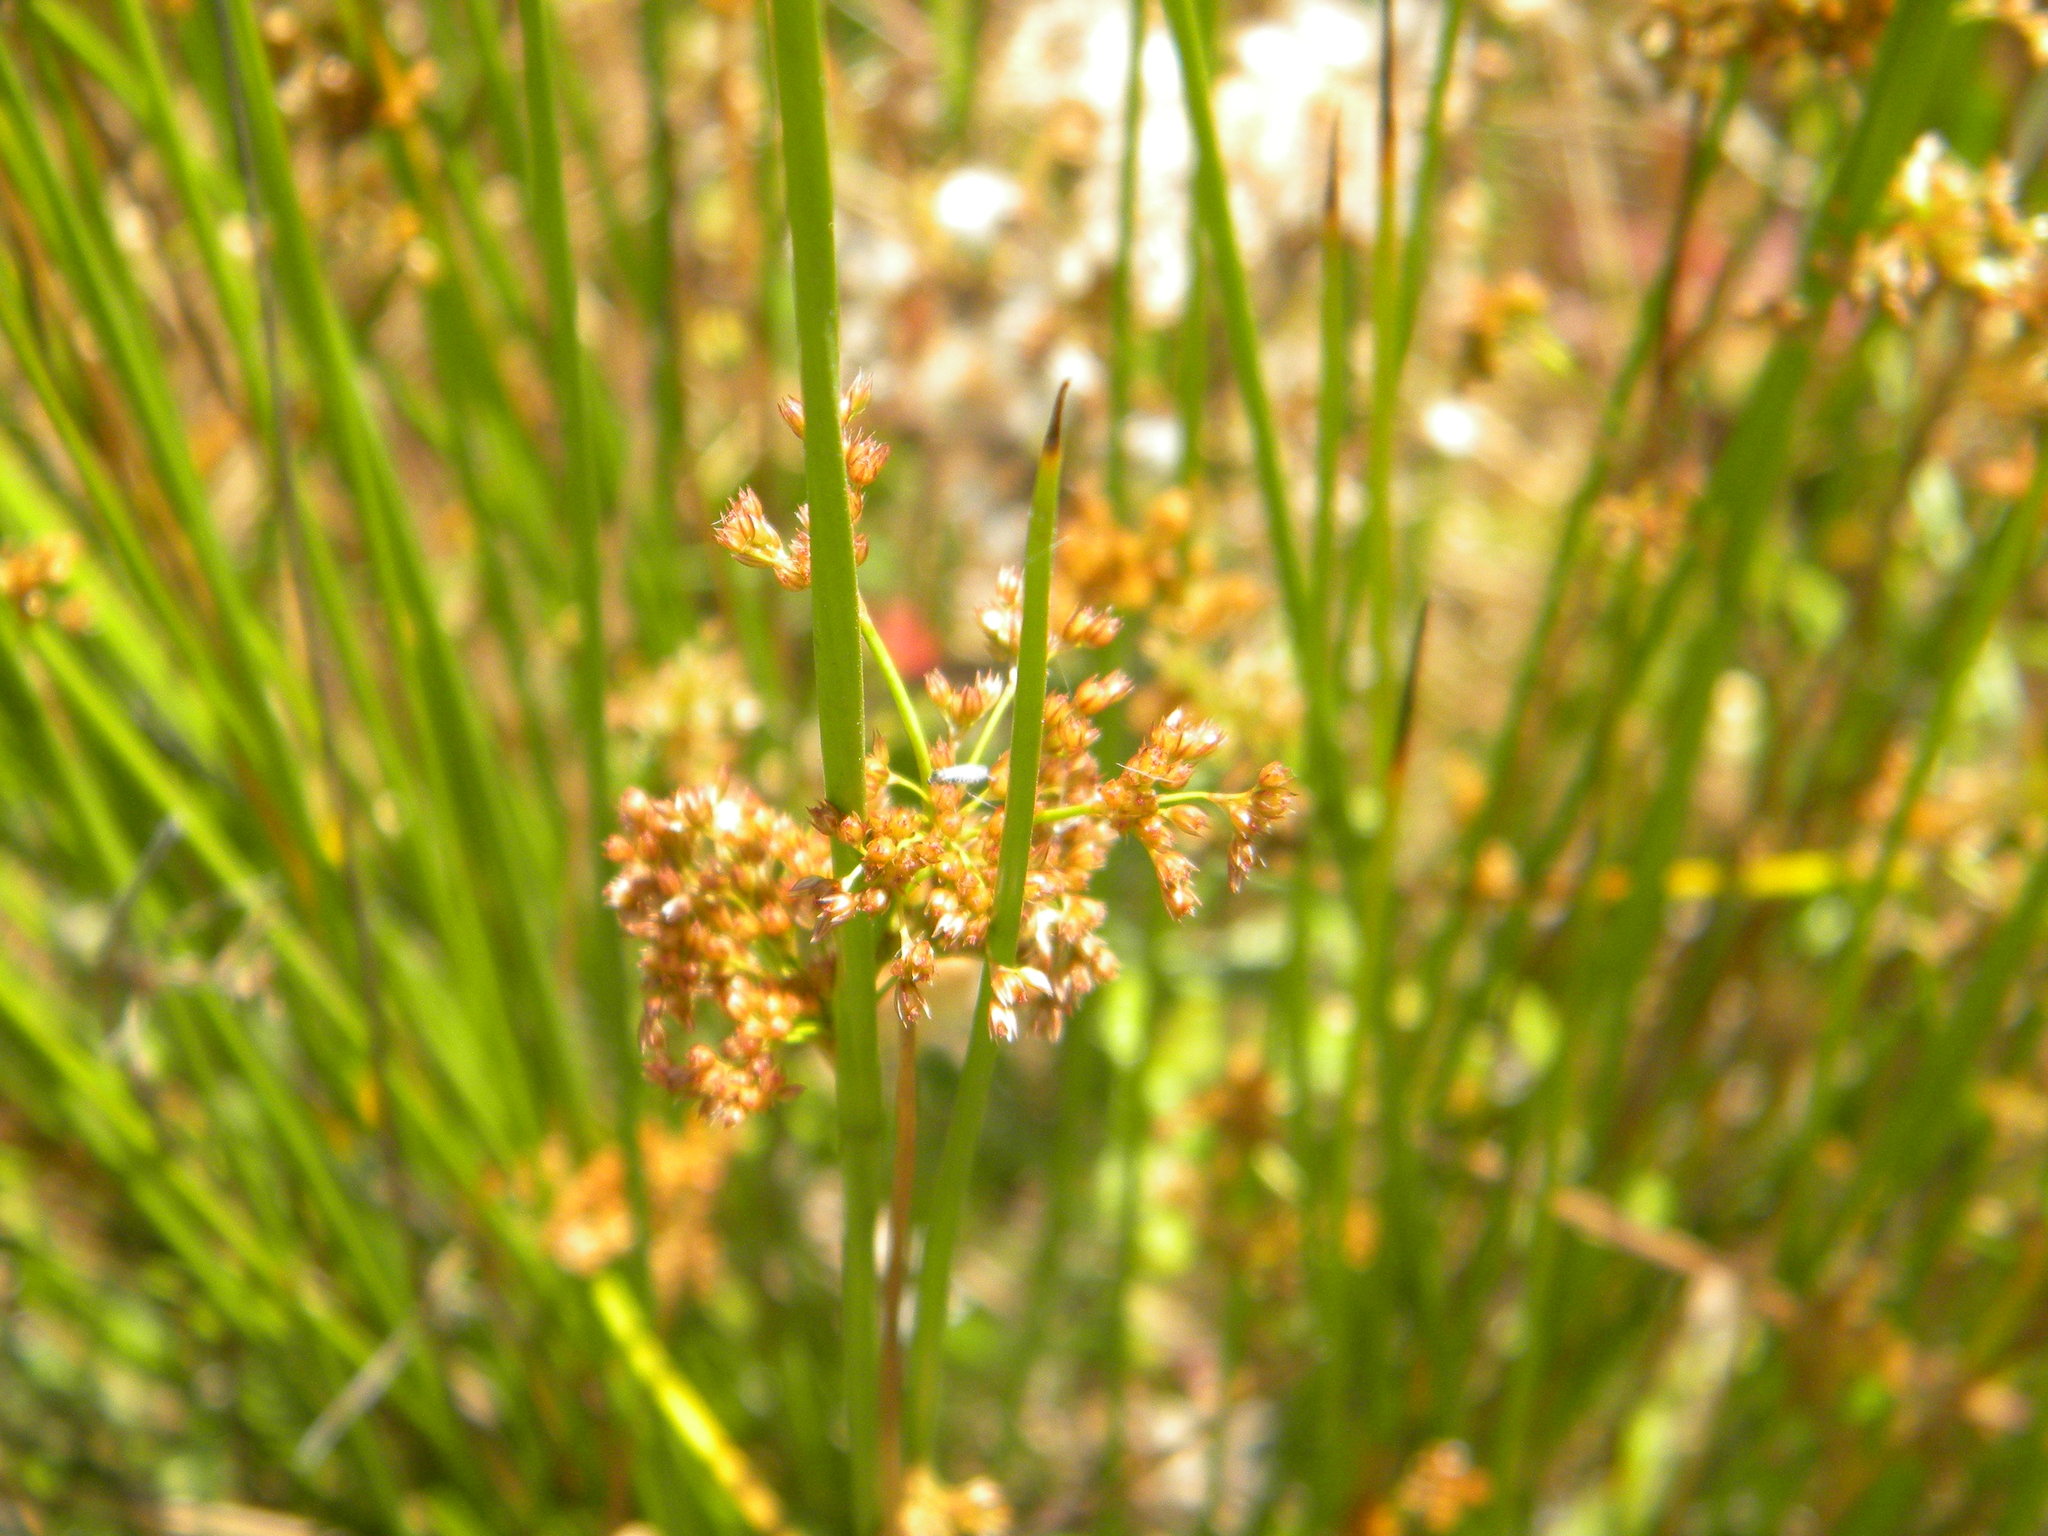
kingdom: Plantae
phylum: Tracheophyta
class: Liliopsida
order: Poales
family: Juncaceae
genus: Juncus
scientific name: Juncus effusus
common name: Soft rush
